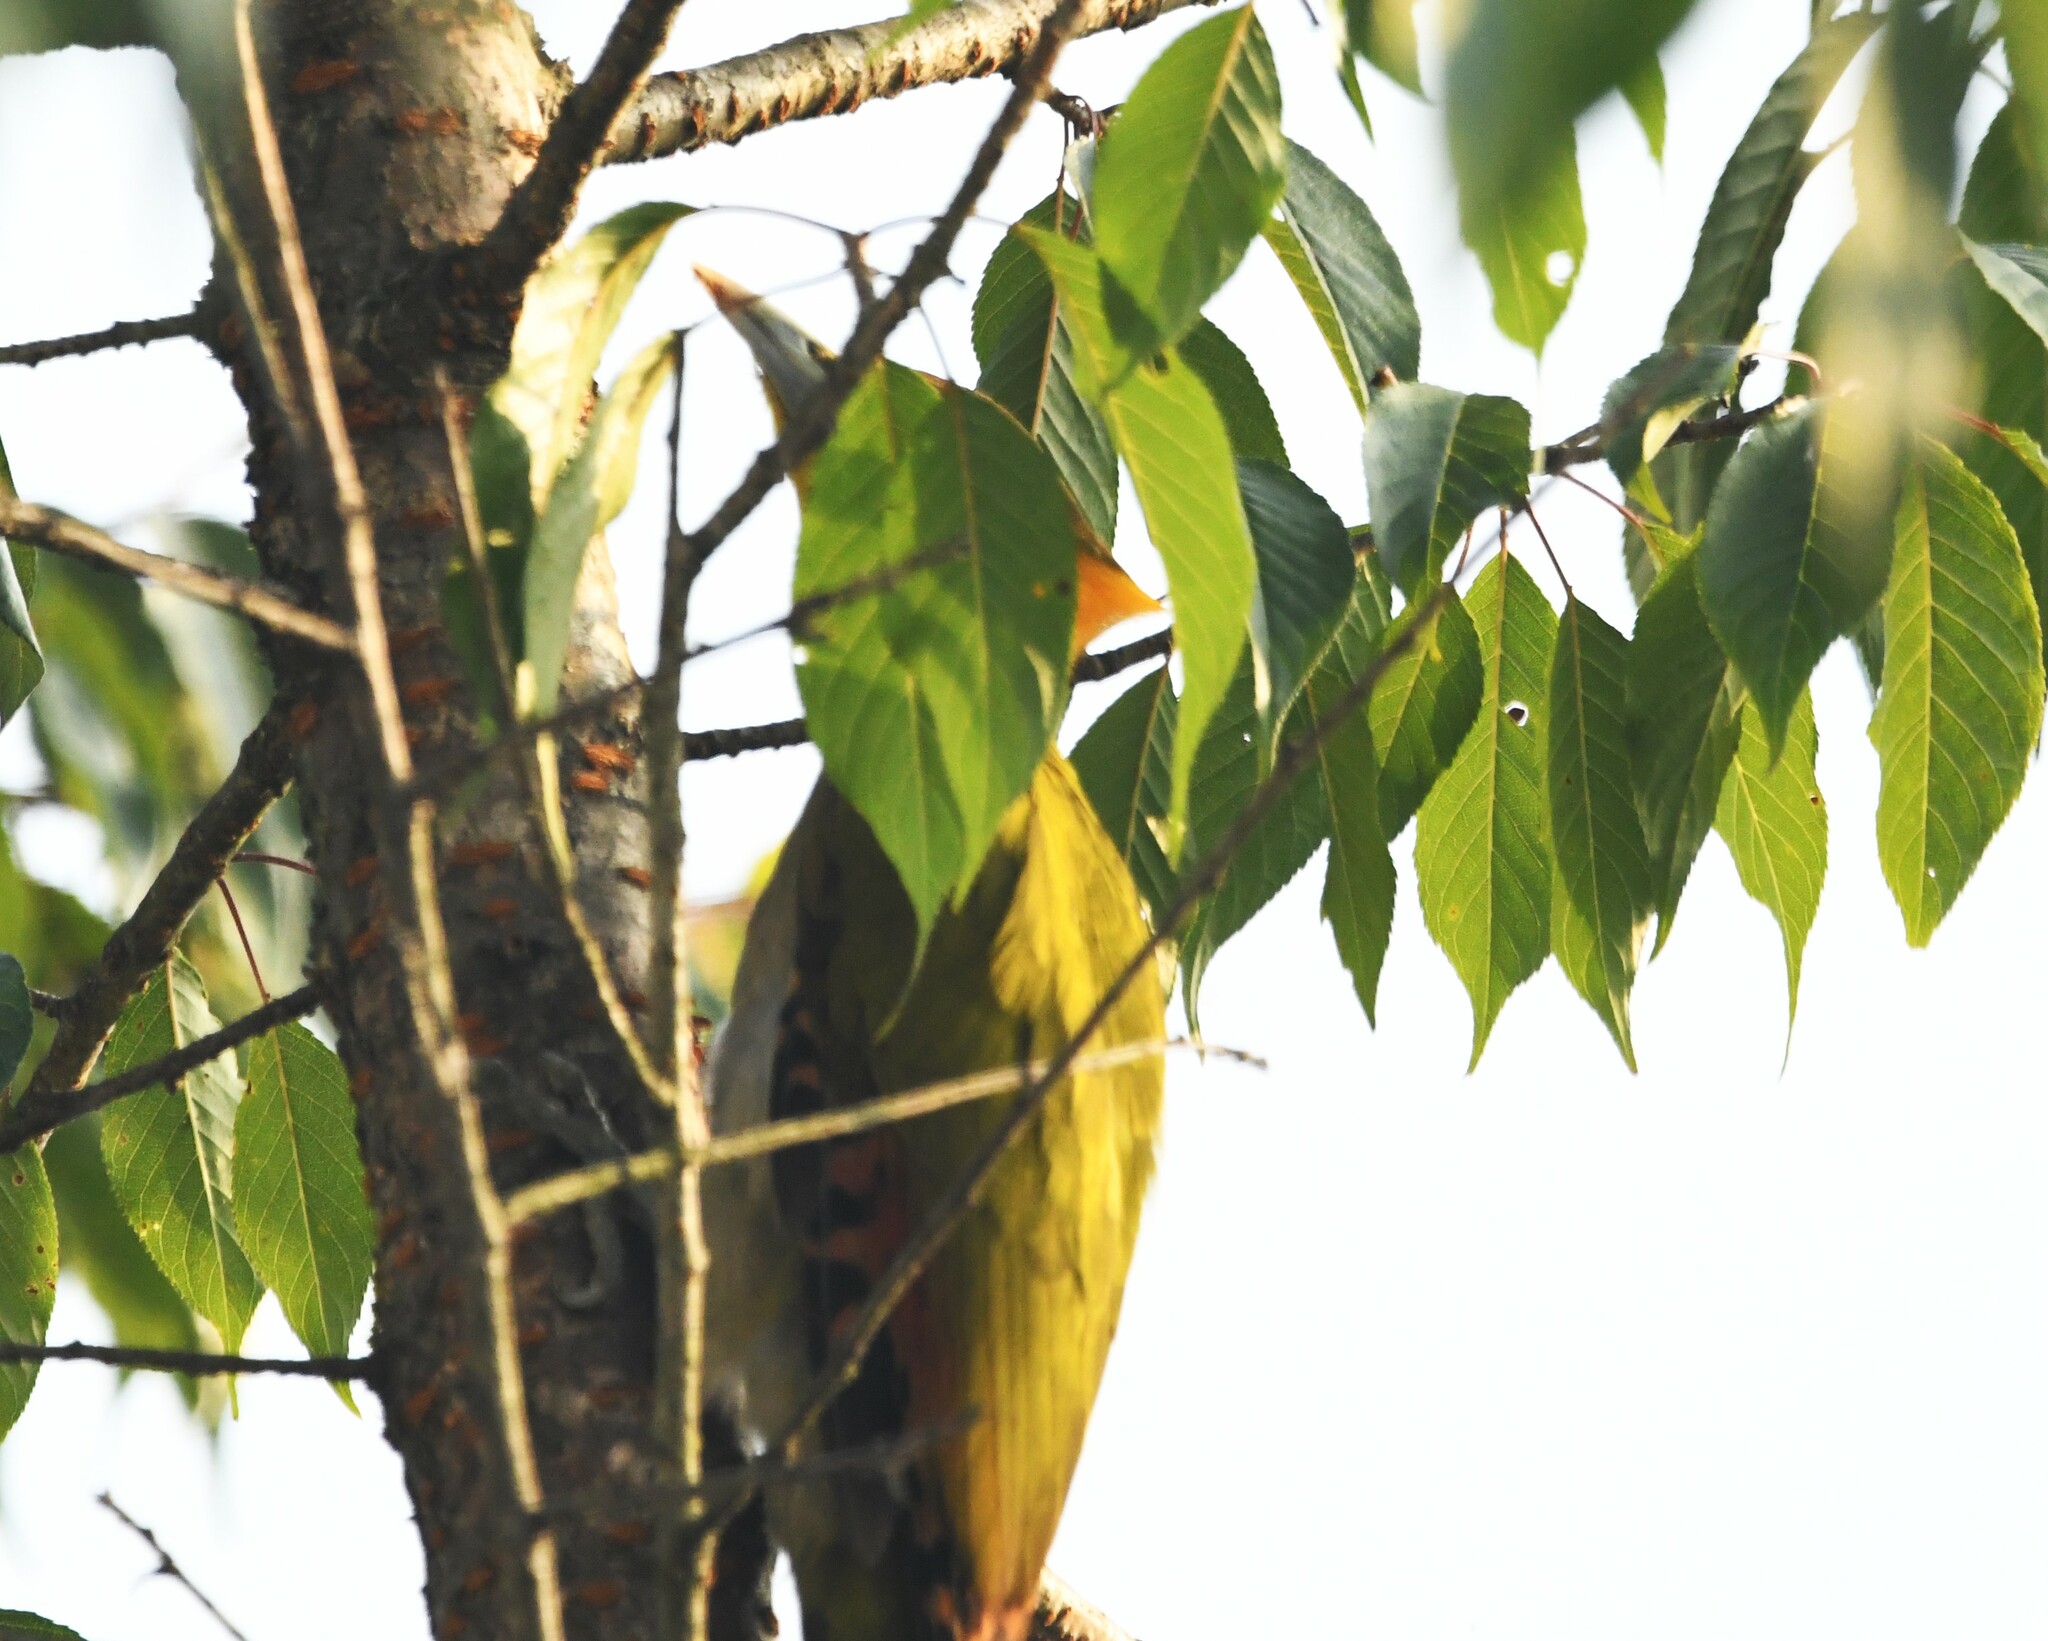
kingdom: Animalia
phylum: Chordata
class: Aves
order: Piciformes
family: Picidae
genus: Chrysophlegma
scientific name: Chrysophlegma flavinucha
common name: Greater yellownape
